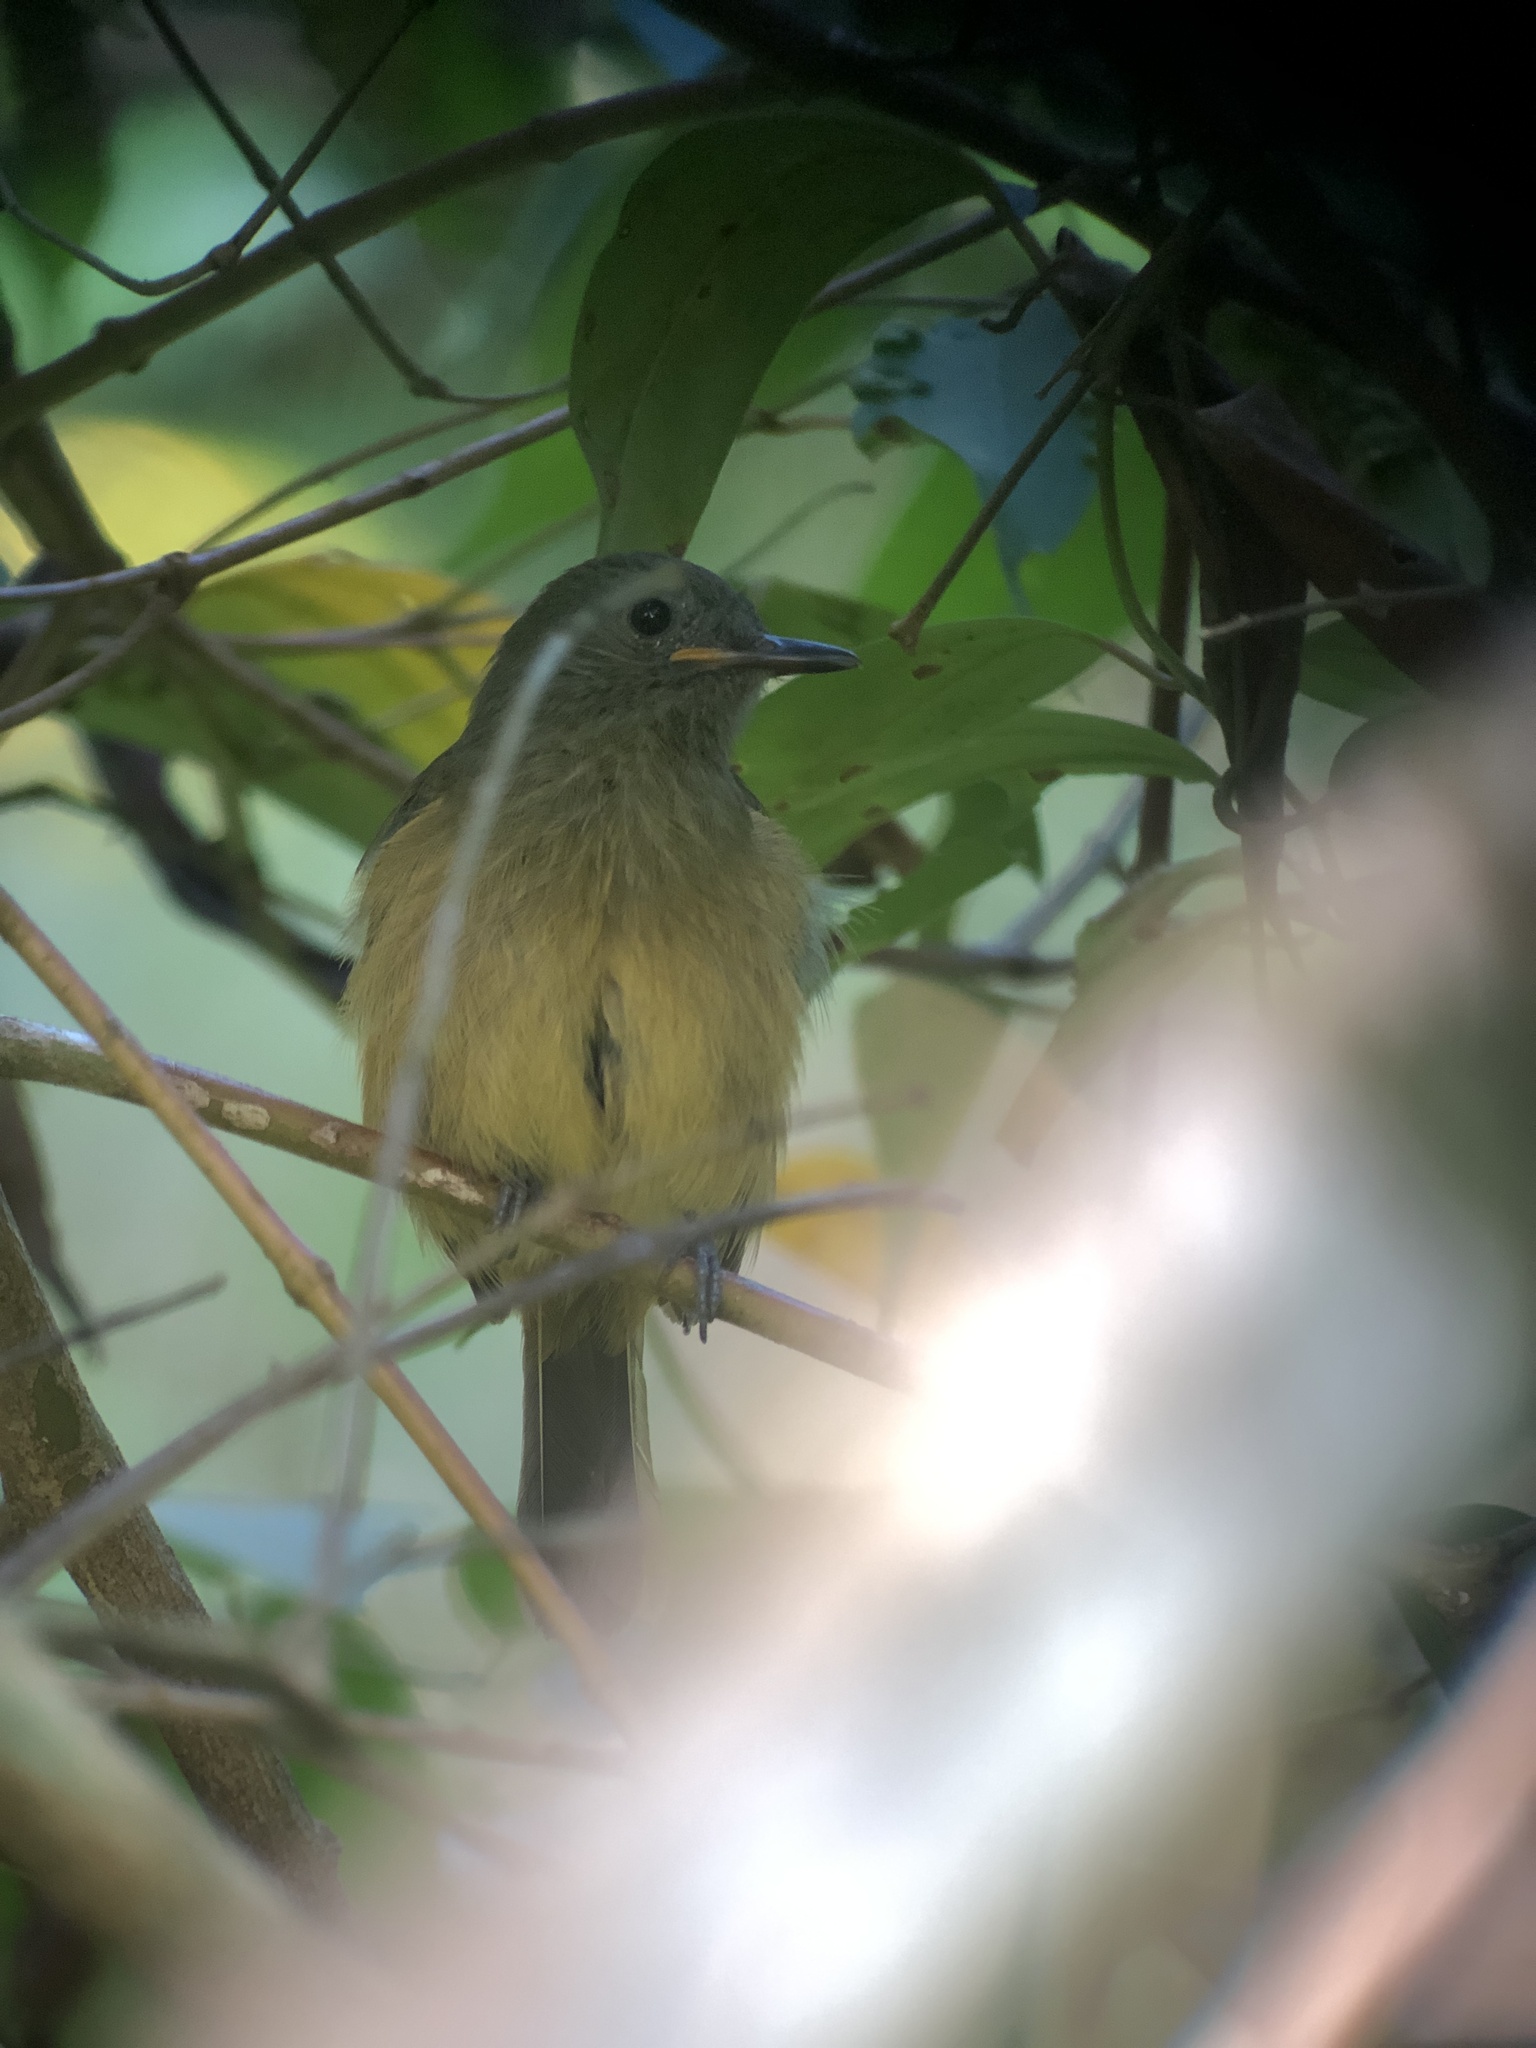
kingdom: Animalia
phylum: Chordata
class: Aves
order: Passeriformes
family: Tyrannidae
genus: Mionectes
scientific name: Mionectes oleagineus
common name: Ochre-bellied flycatcher
